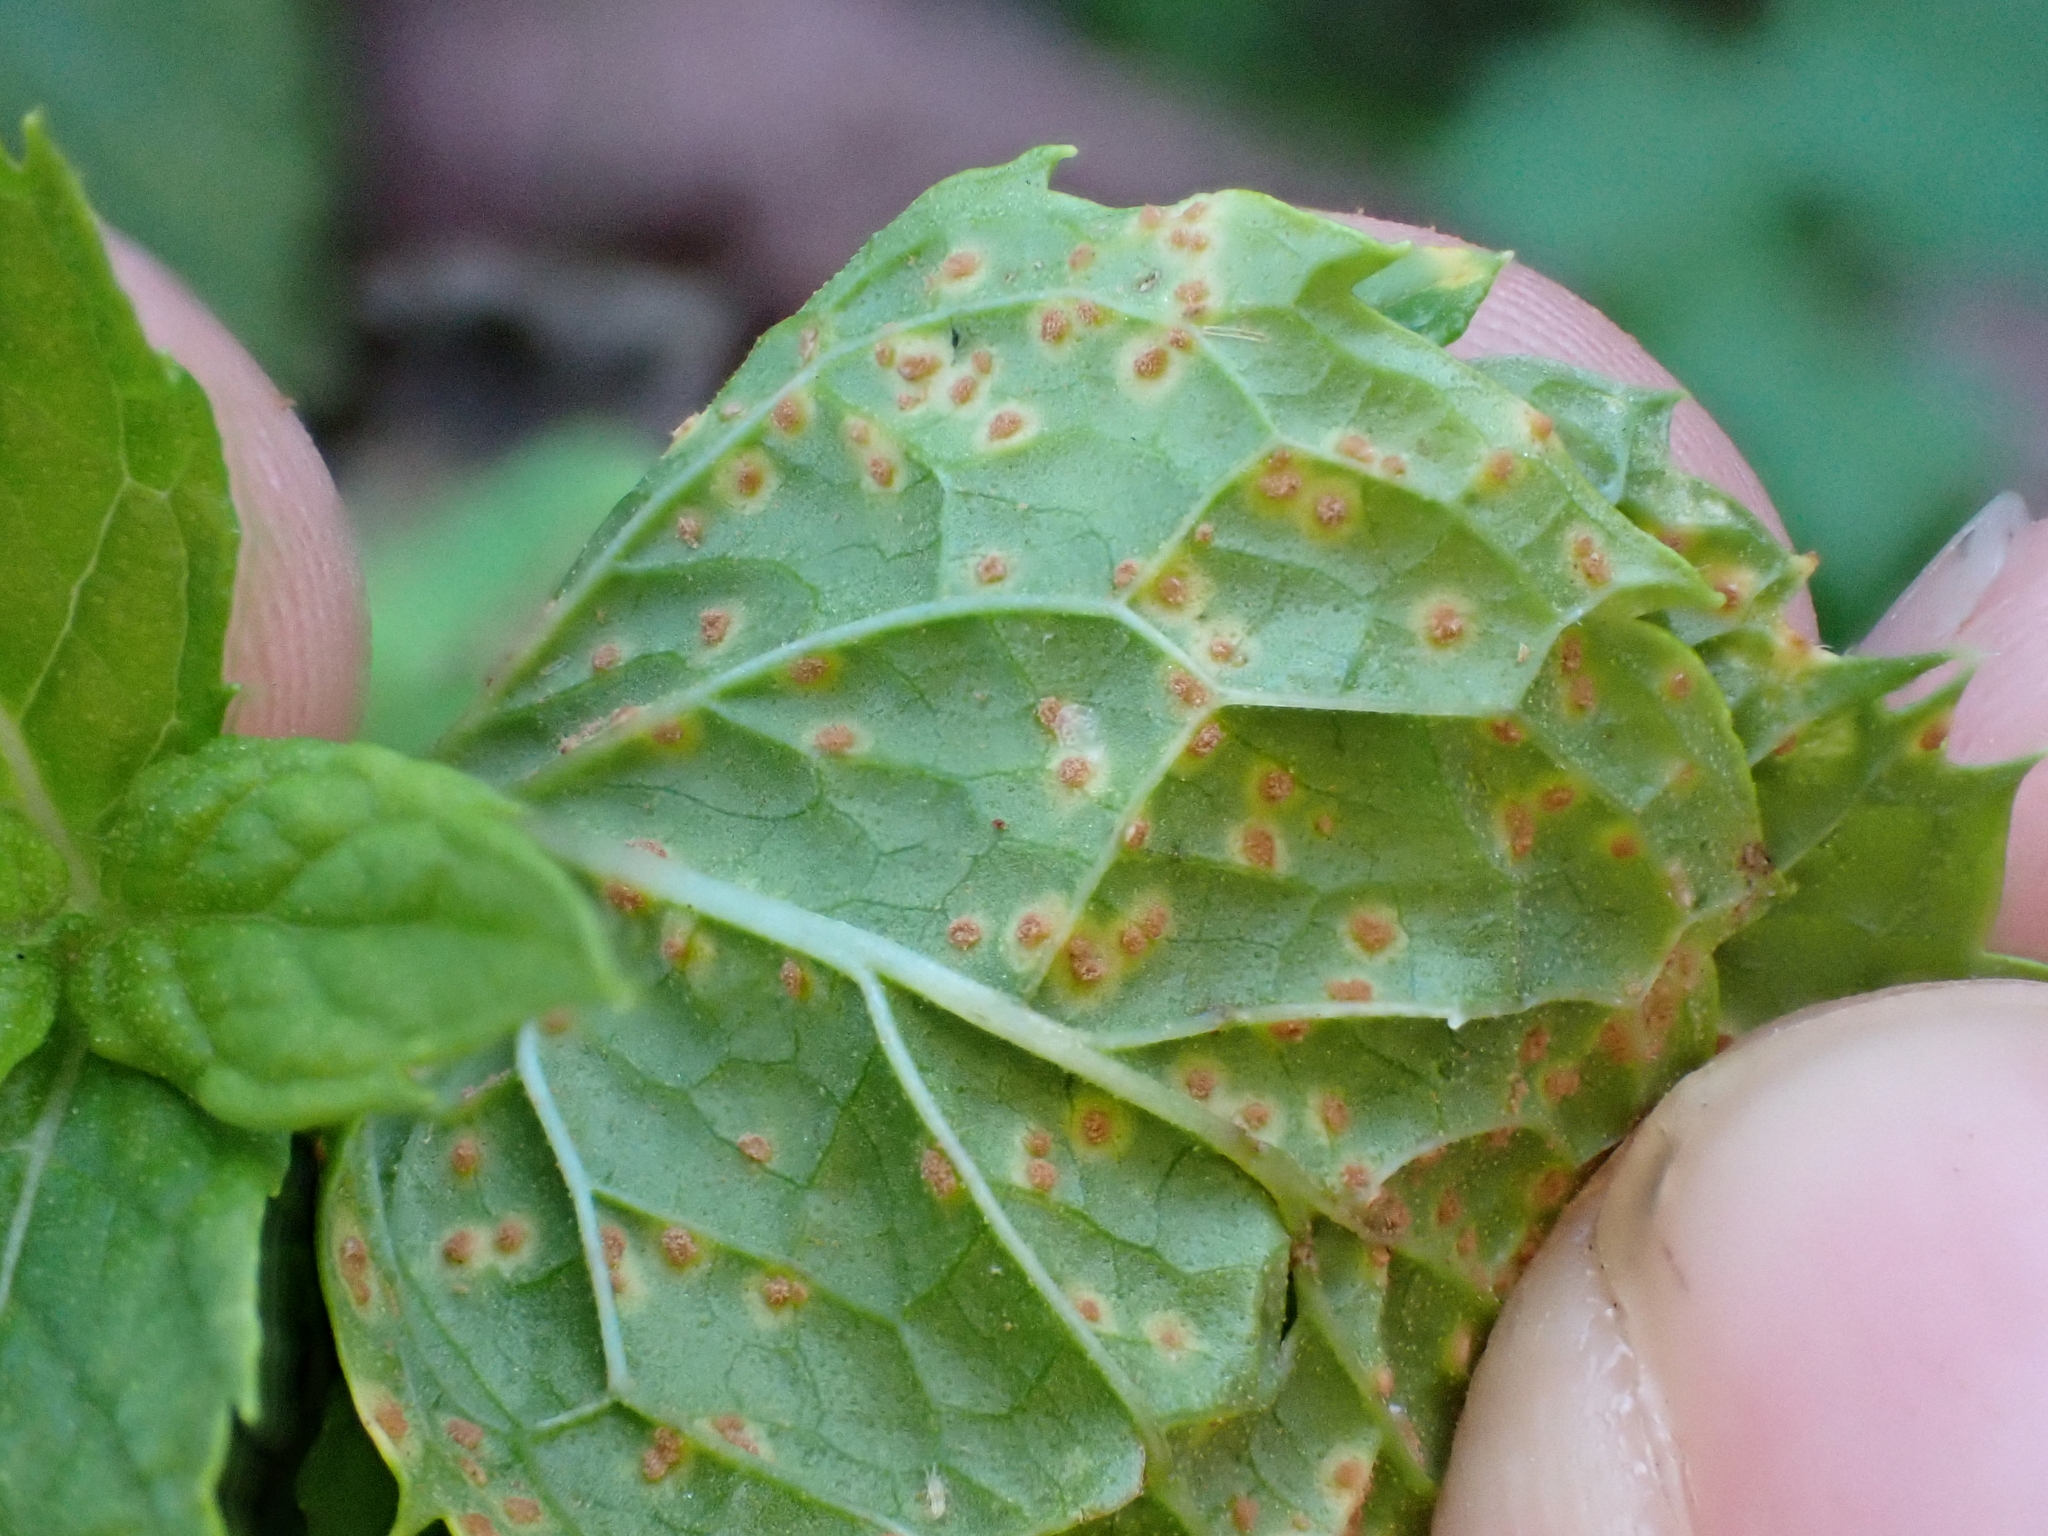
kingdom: Fungi
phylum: Basidiomycota
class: Pucciniomycetes
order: Pucciniales
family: Pucciniaceae
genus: Puccinia
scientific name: Puccinia menthae
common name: Mint rust
